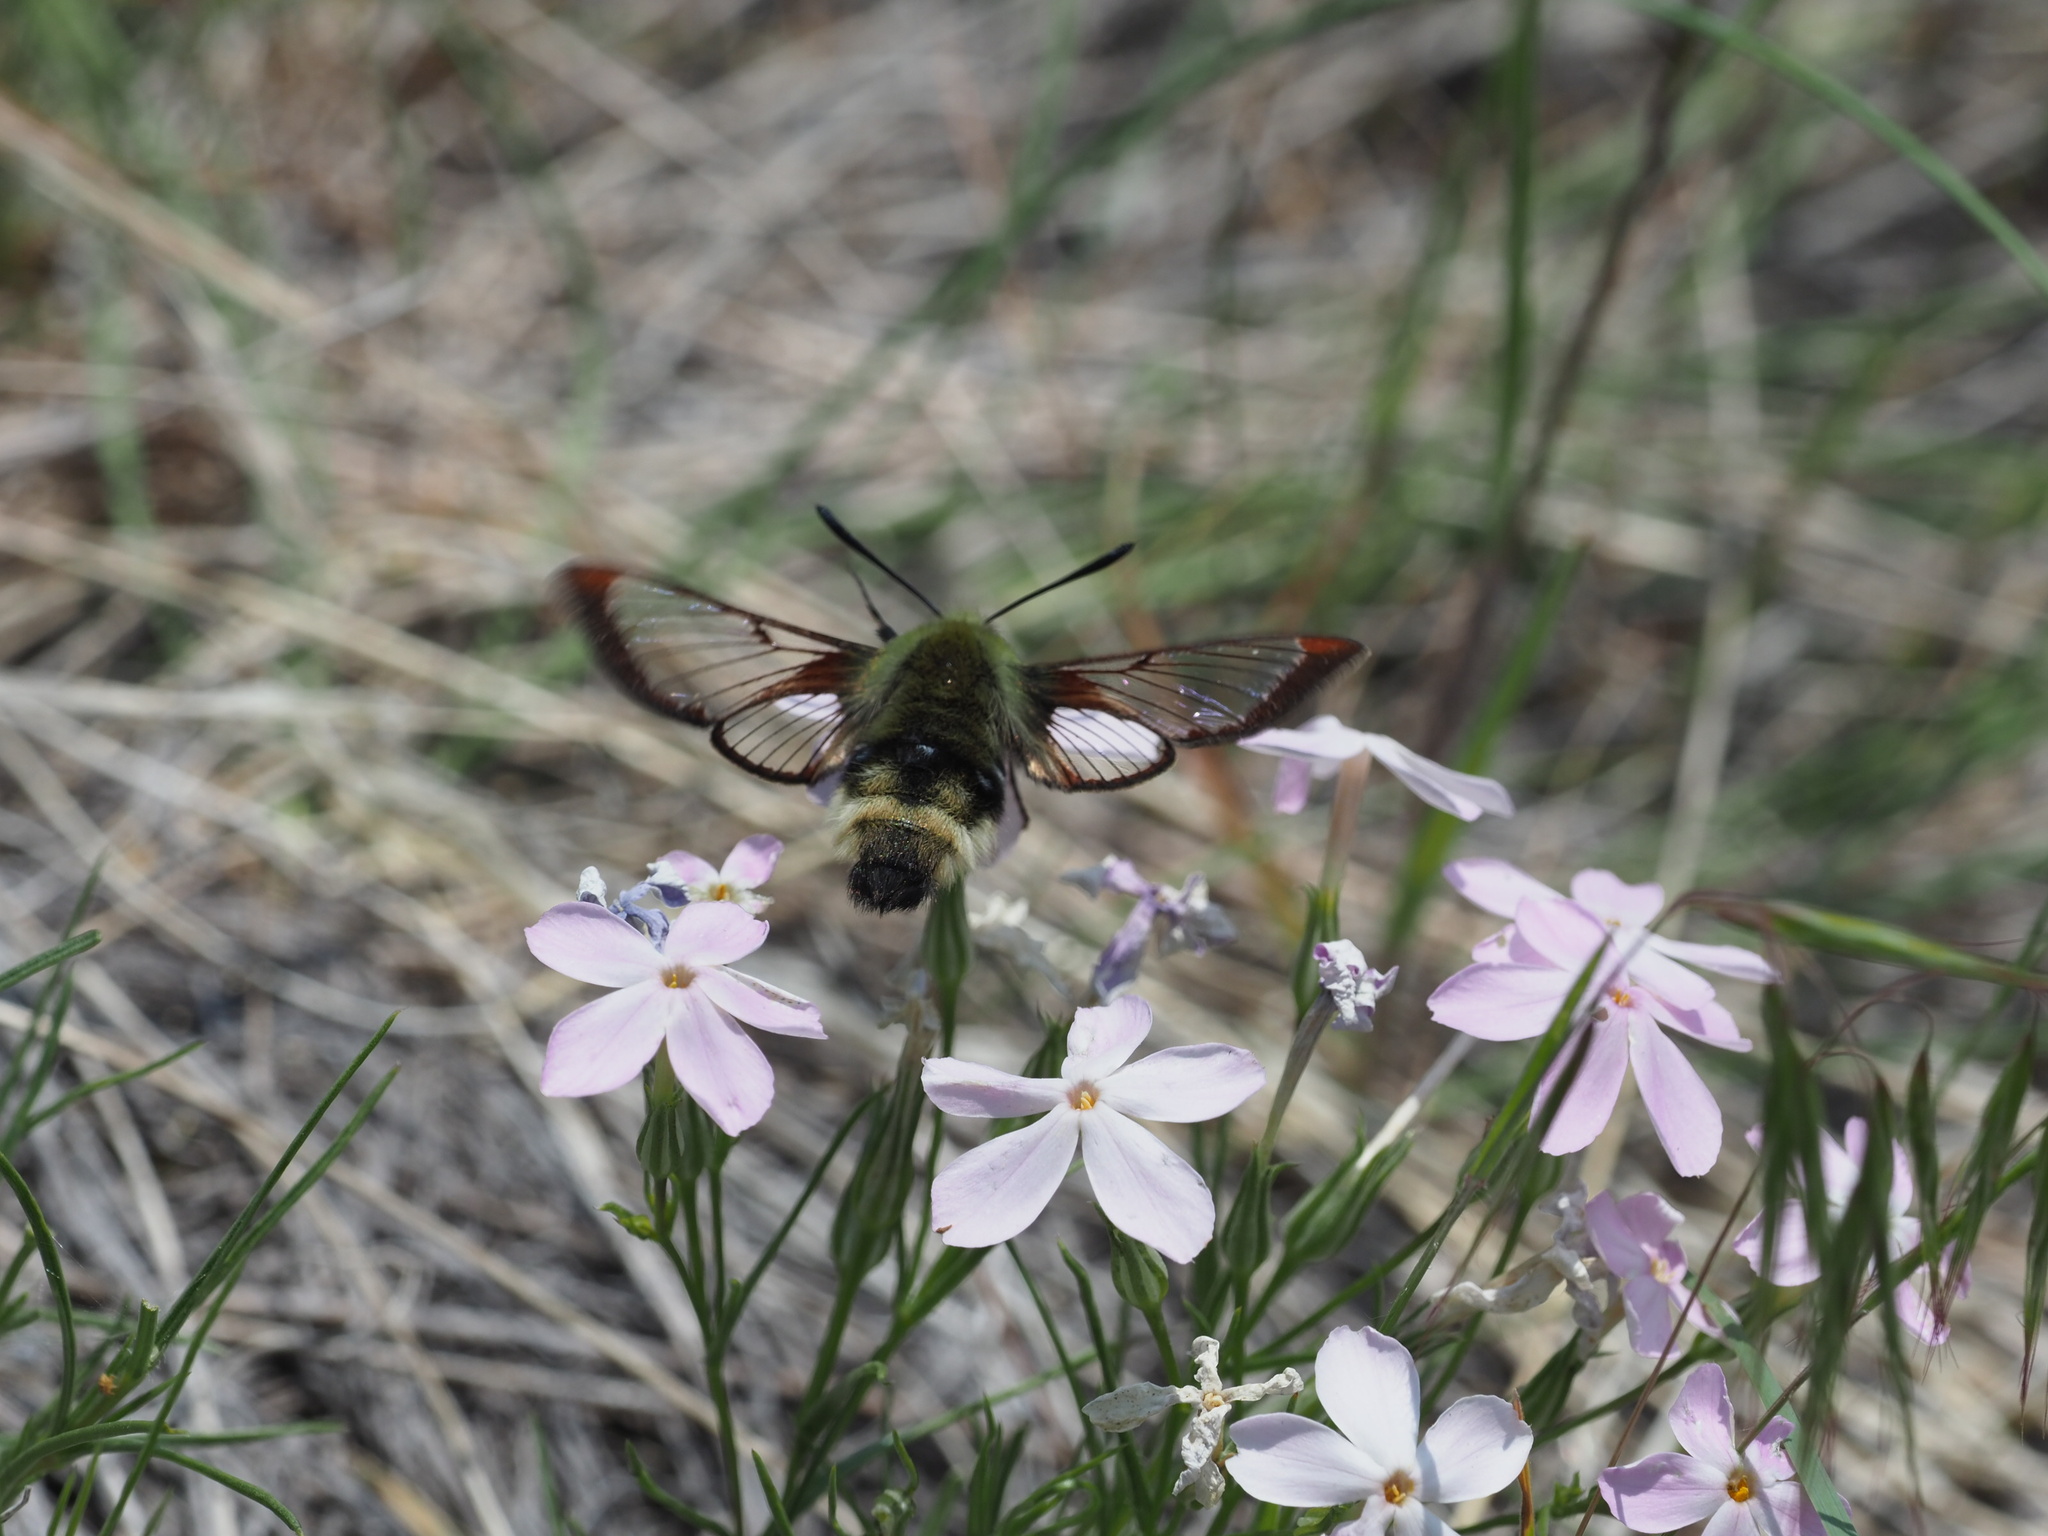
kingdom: Animalia
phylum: Arthropoda
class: Insecta
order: Lepidoptera
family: Sphingidae
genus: Hemaris
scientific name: Hemaris thetis
